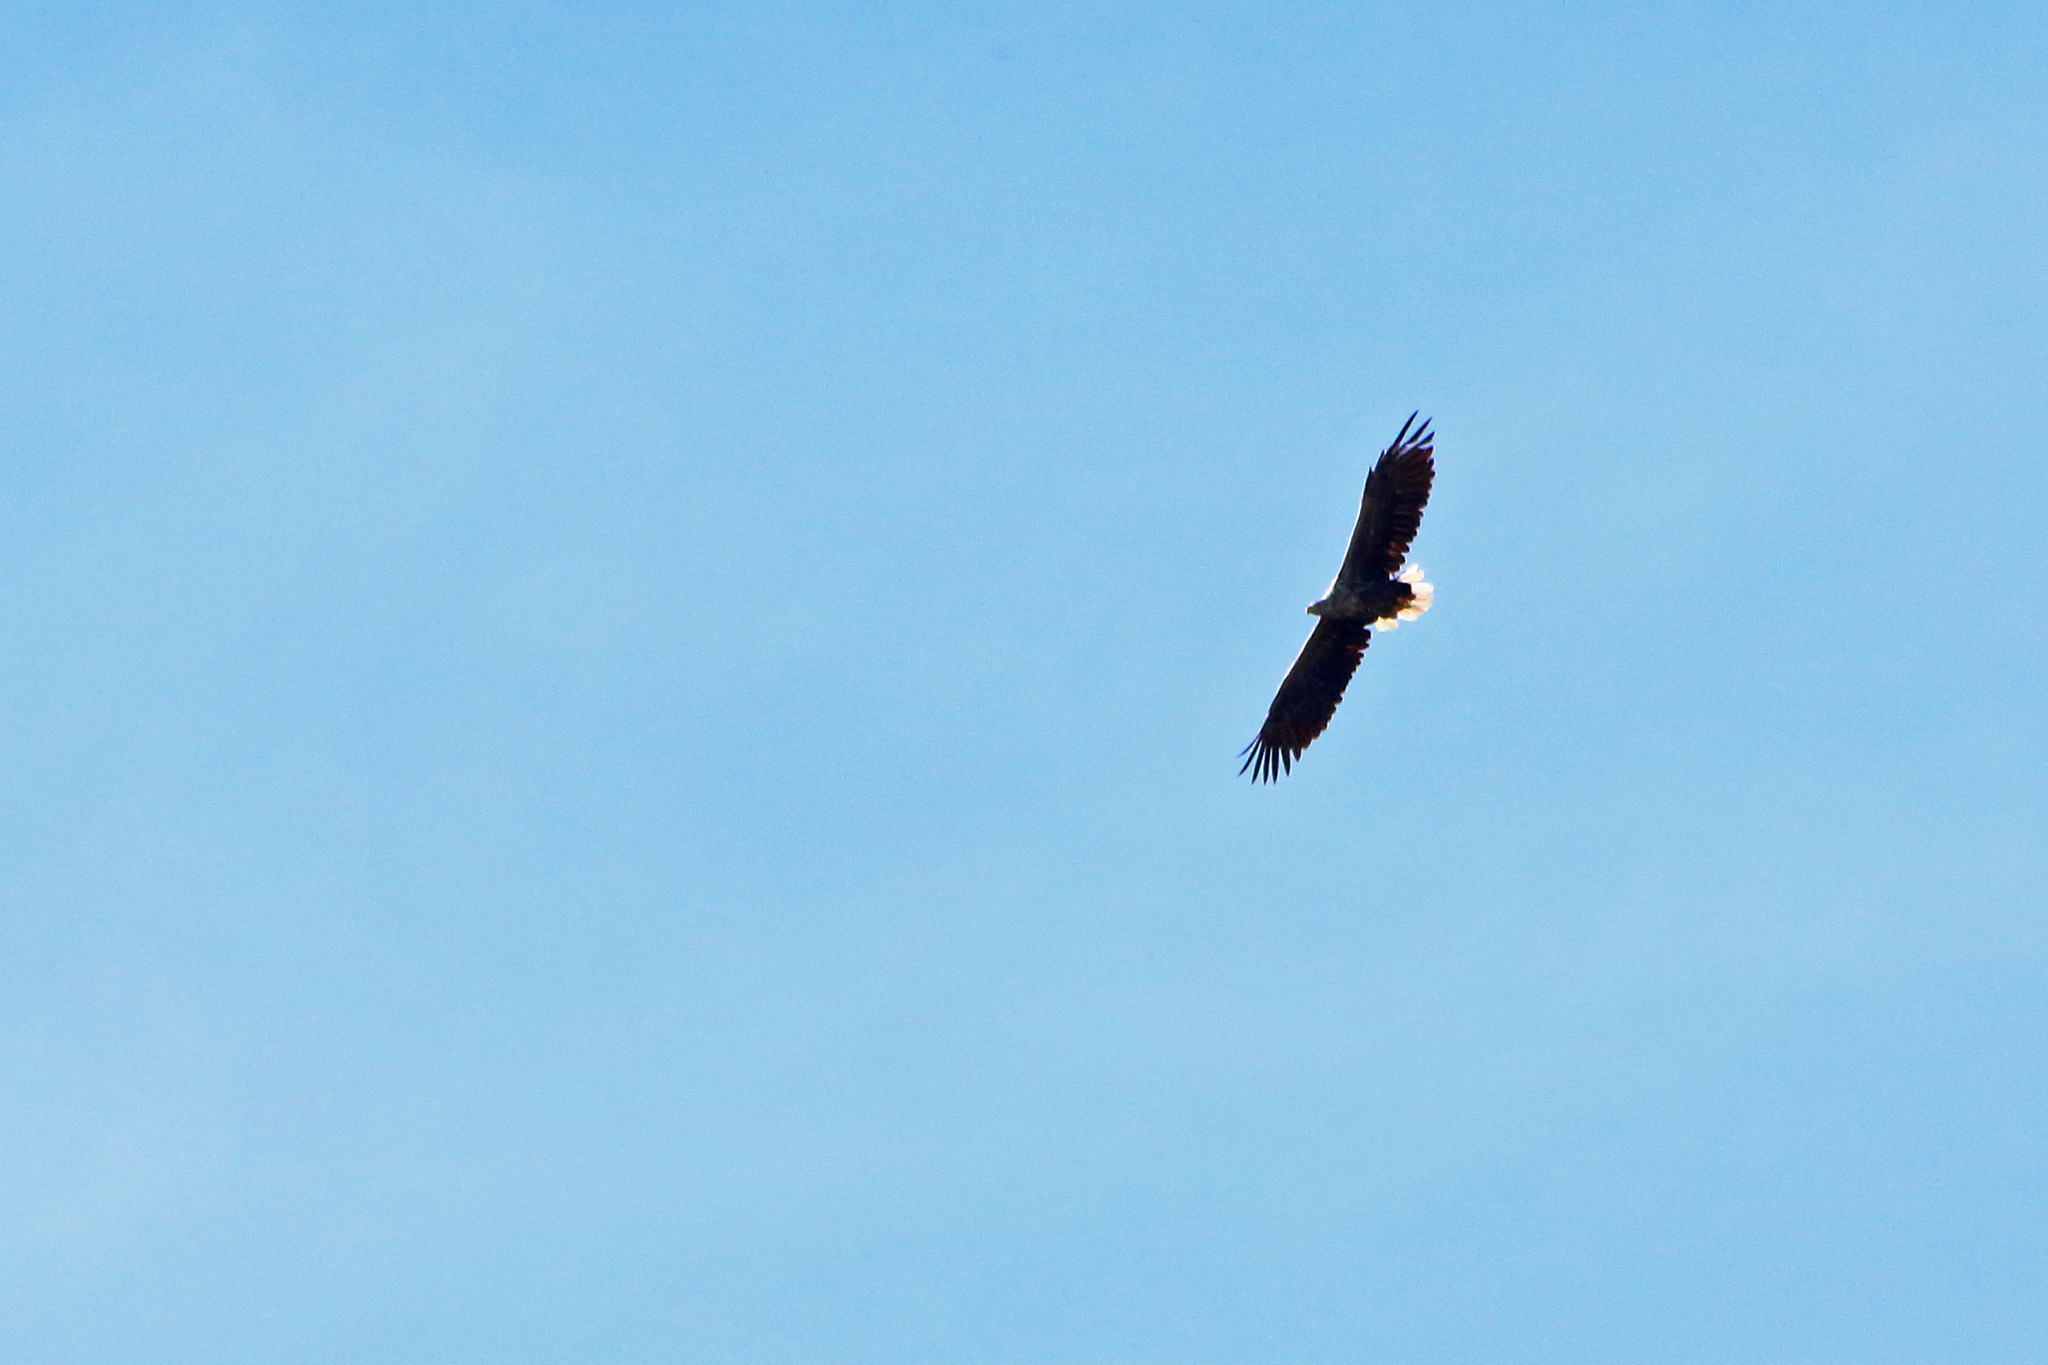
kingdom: Animalia
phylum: Chordata
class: Aves
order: Accipitriformes
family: Accipitridae
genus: Haliaeetus
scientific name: Haliaeetus albicilla
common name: White-tailed eagle
